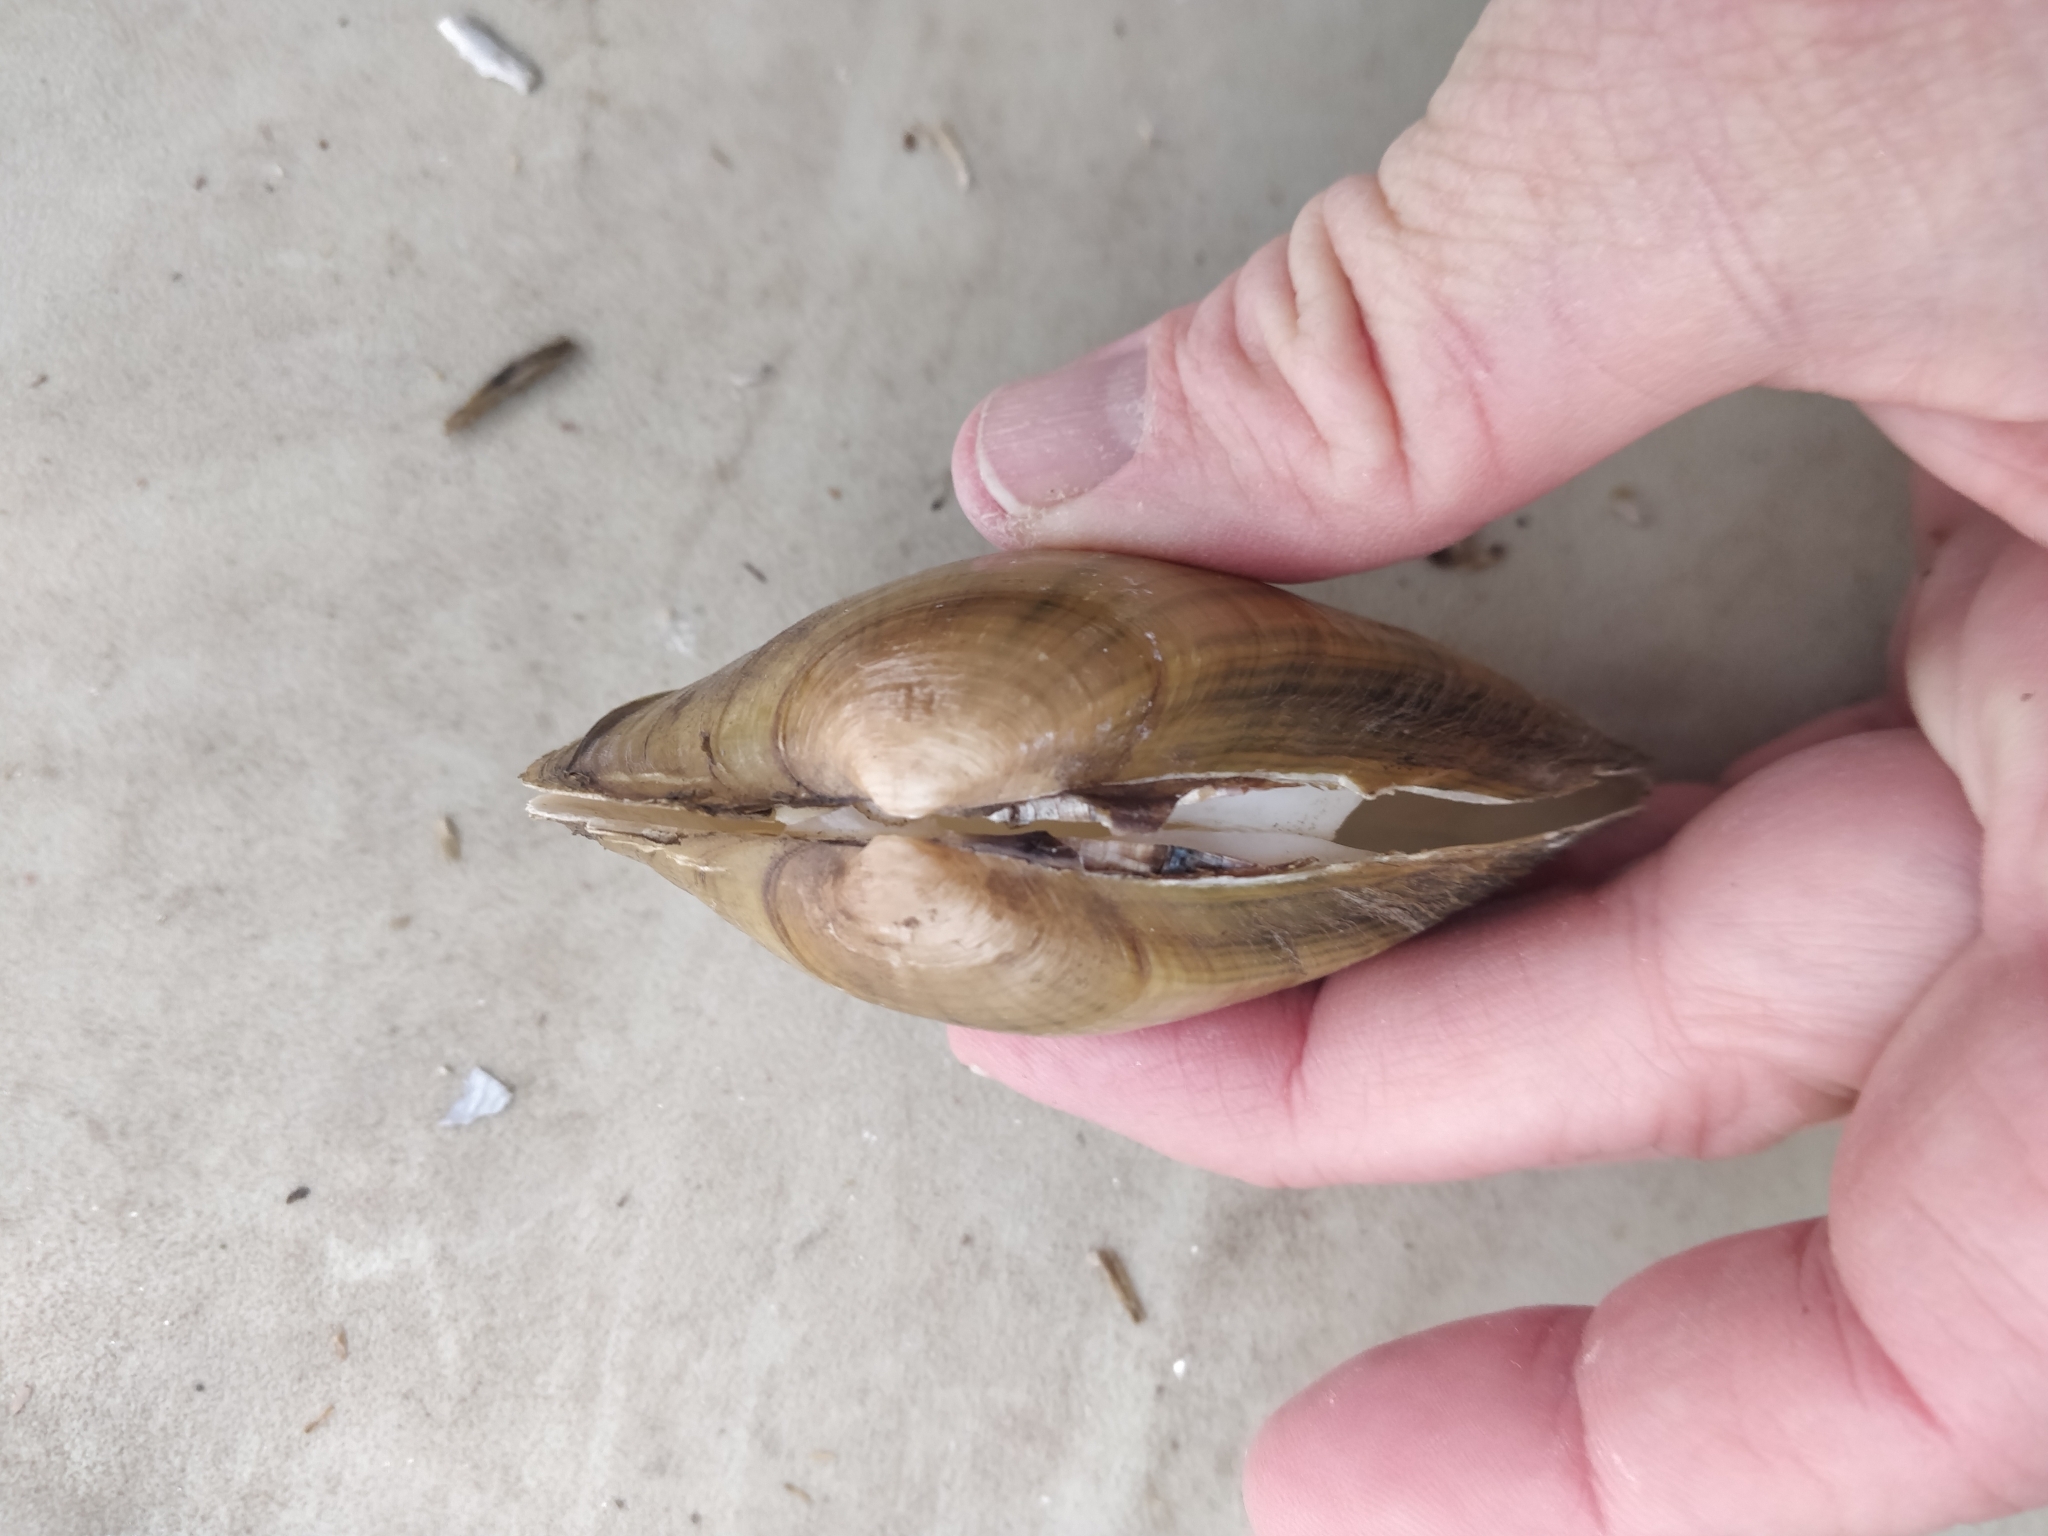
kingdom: Animalia
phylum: Mollusca
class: Bivalvia
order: Unionida
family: Unionidae
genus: Lampsilis
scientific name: Lampsilis cardium
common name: Plain pocketbook
